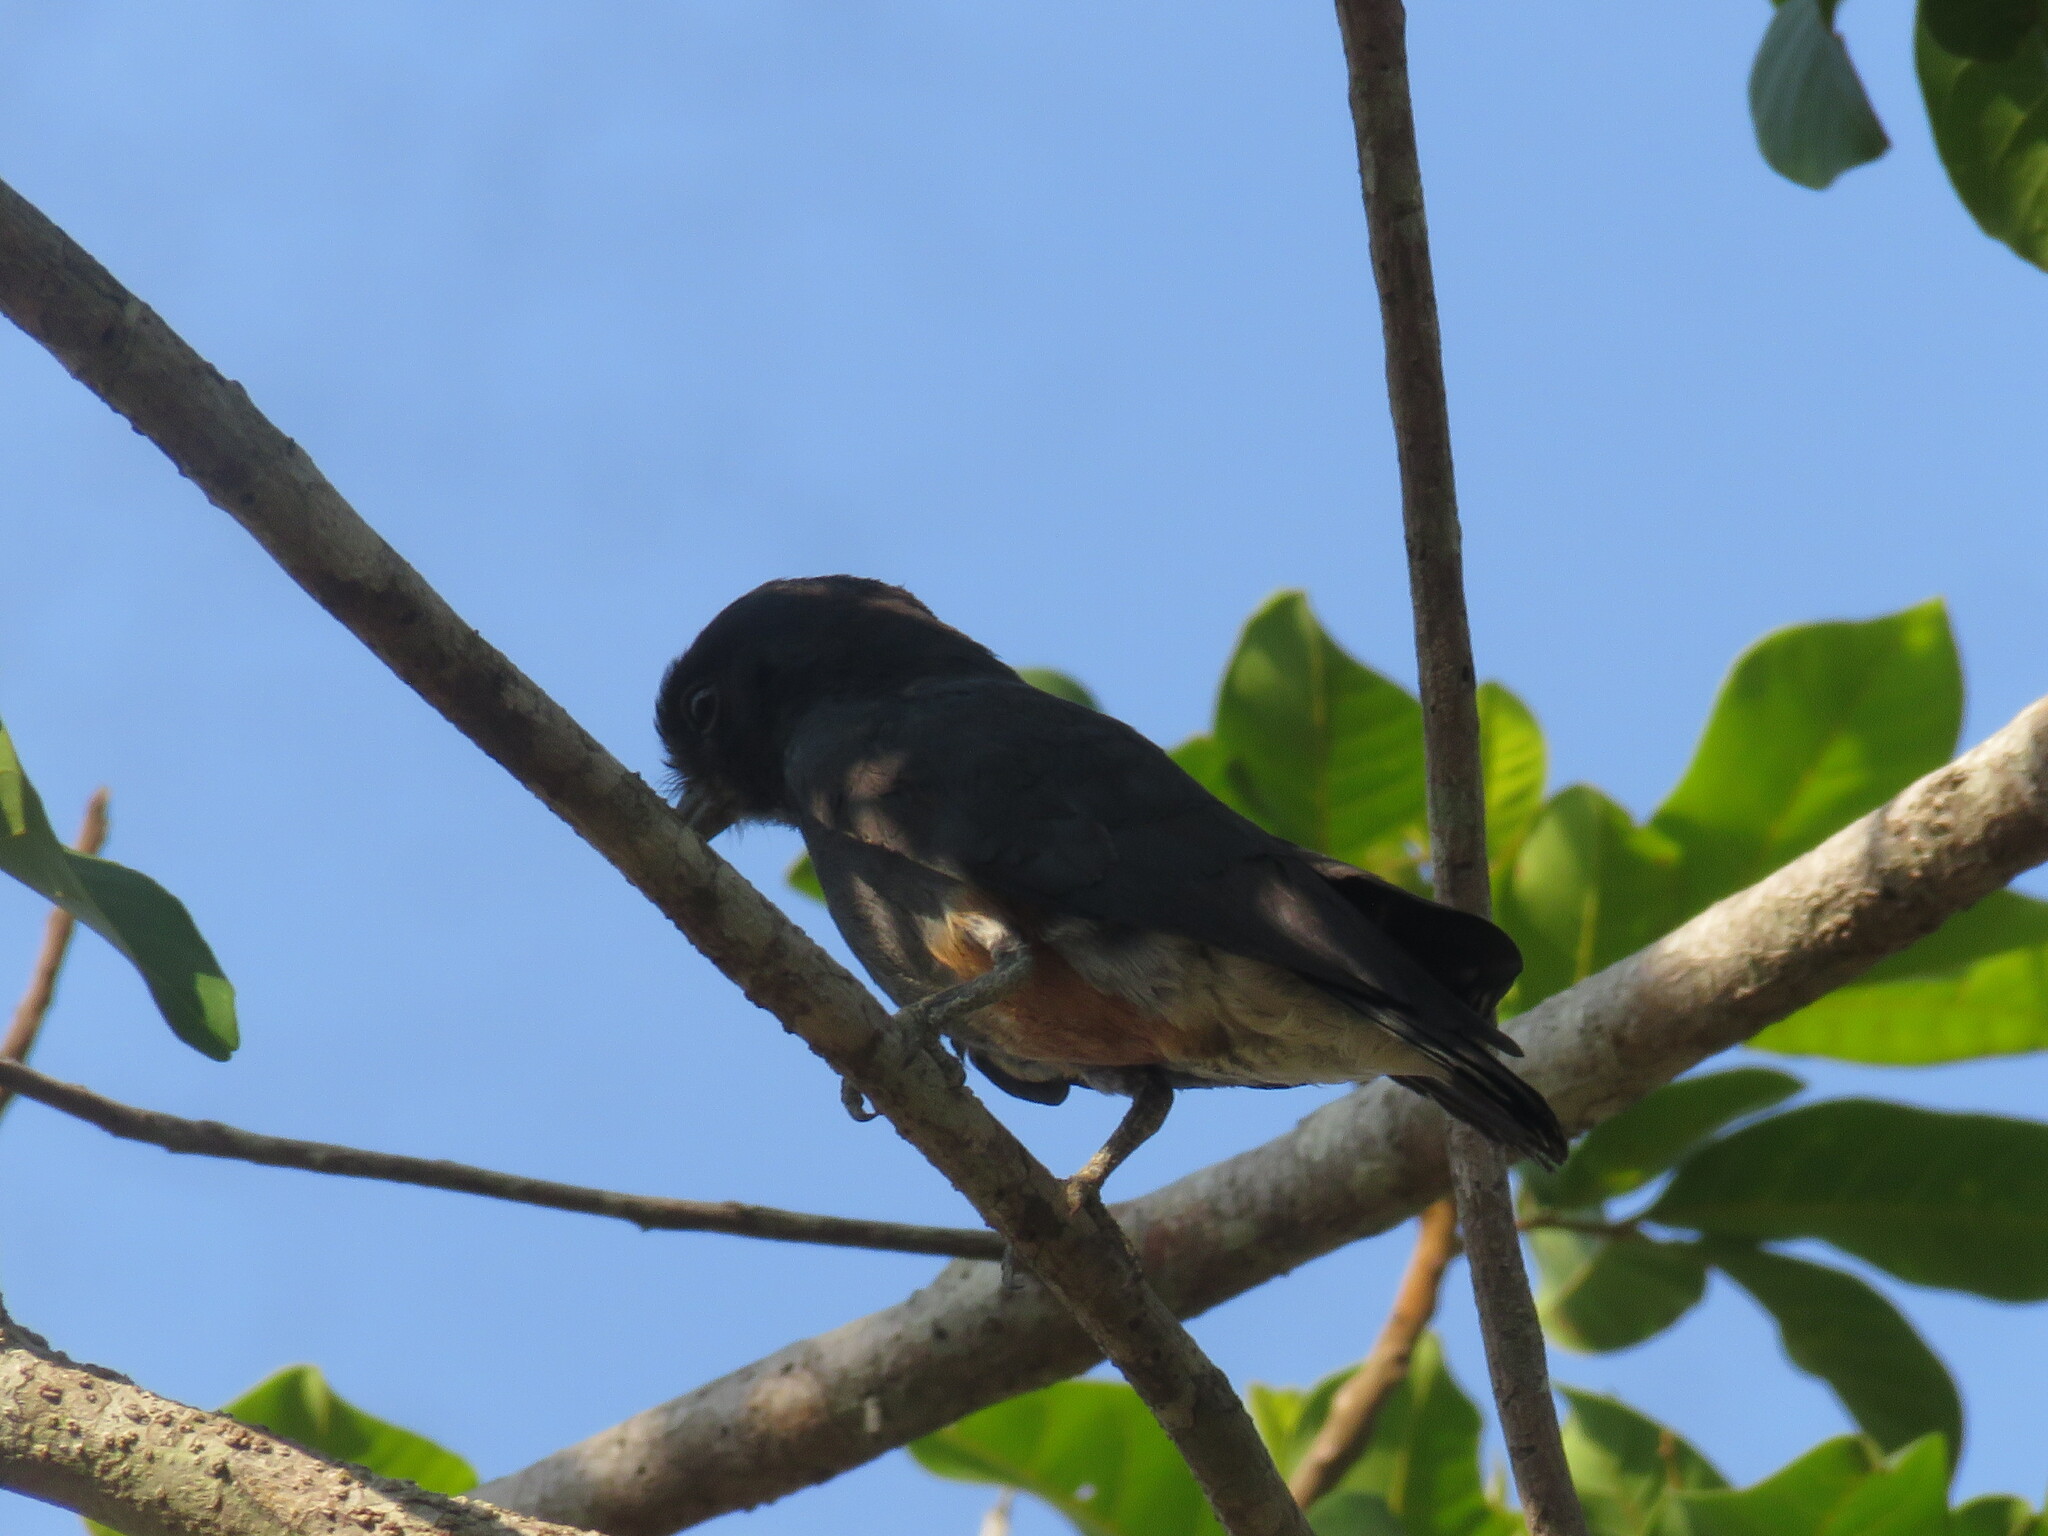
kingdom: Animalia
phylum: Chordata
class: Aves
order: Piciformes
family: Bucconidae
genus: Chelidoptera
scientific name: Chelidoptera tenebrosa
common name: Swallow-winged puffbird
